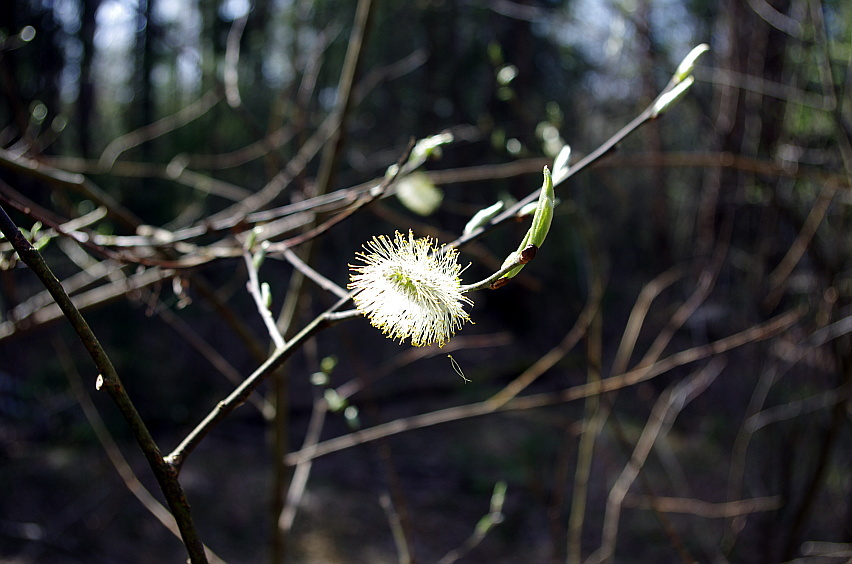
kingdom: Plantae
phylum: Tracheophyta
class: Magnoliopsida
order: Malpighiales
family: Salicaceae
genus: Salix
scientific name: Salix caprea
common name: Goat willow
